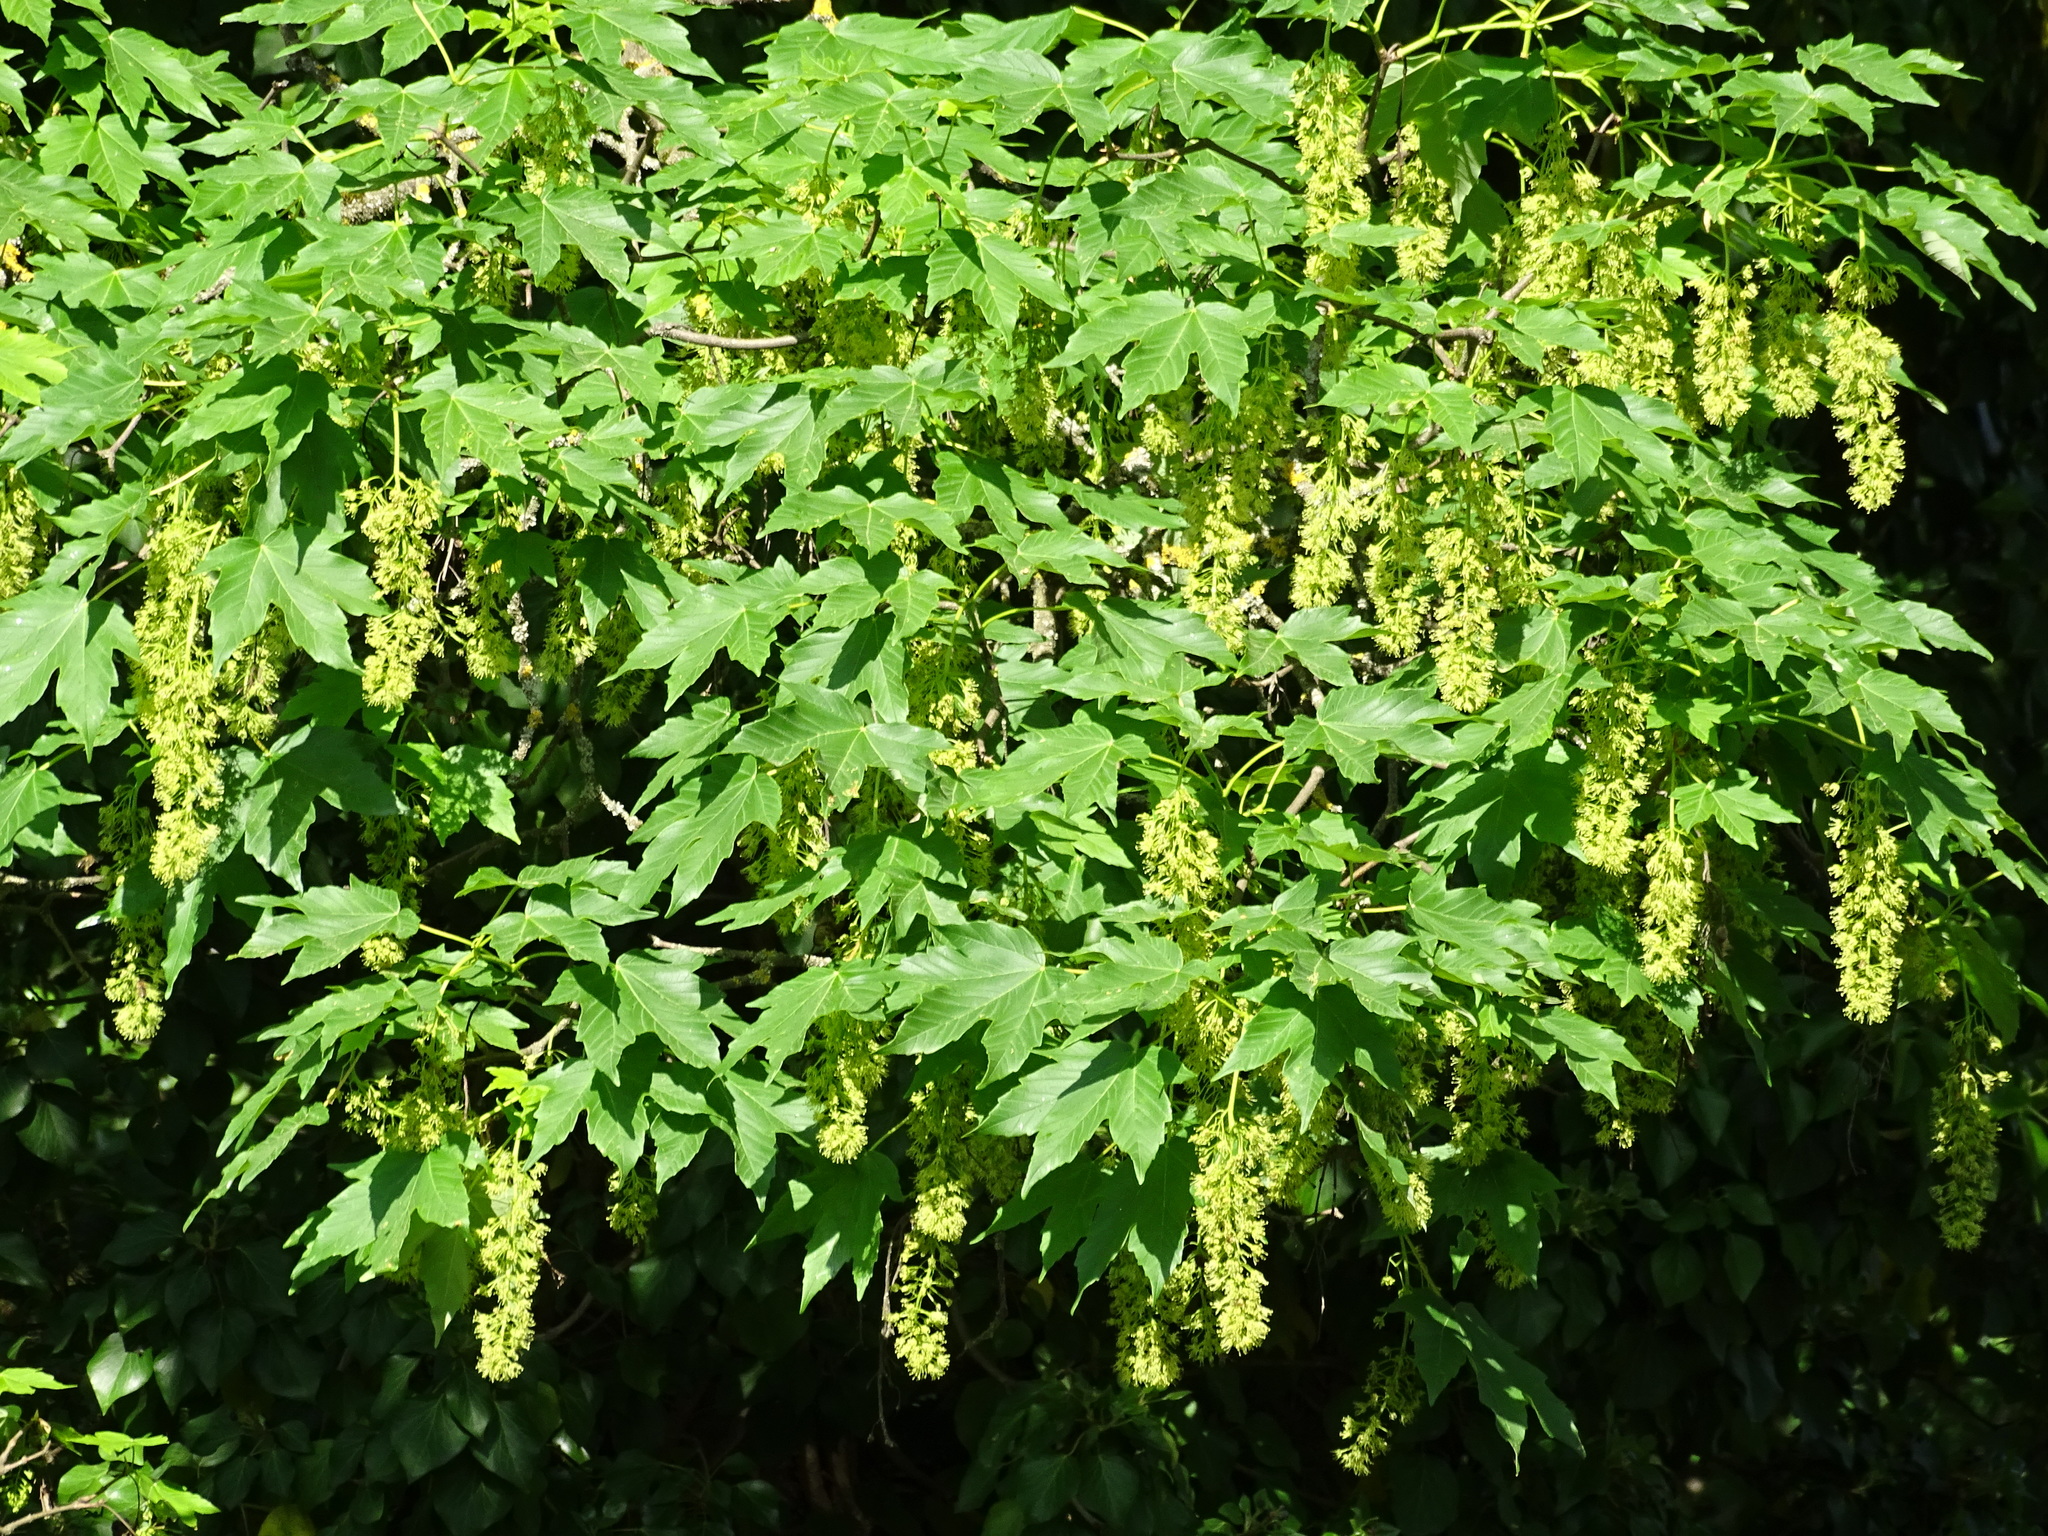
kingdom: Plantae
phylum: Tracheophyta
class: Magnoliopsida
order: Sapindales
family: Sapindaceae
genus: Acer
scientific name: Acer pseudoplatanus
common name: Sycamore
